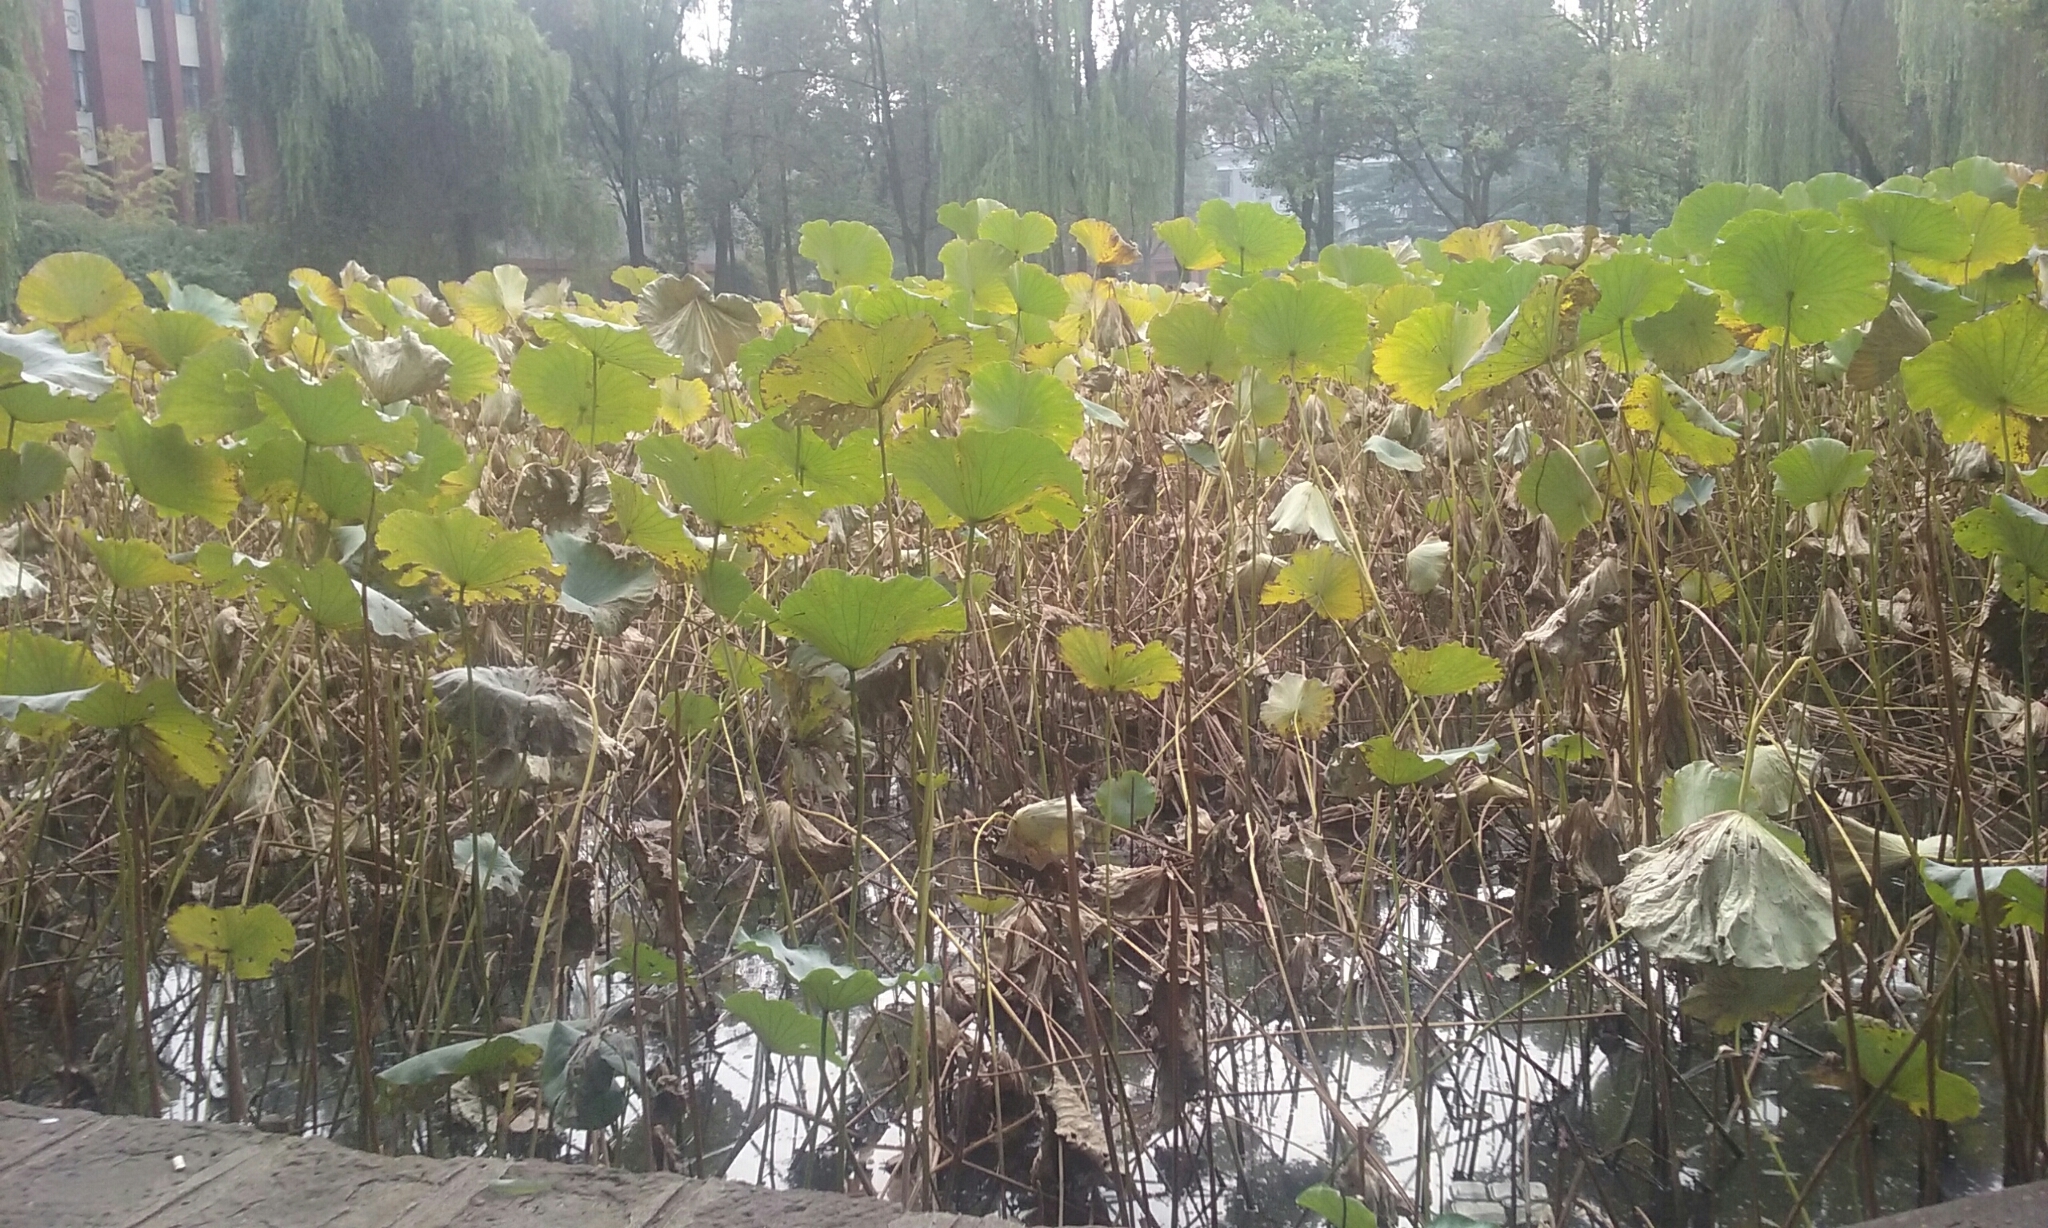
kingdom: Plantae
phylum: Tracheophyta
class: Magnoliopsida
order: Proteales
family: Nelumbonaceae
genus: Nelumbo
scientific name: Nelumbo nucifera
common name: Sacred lotus
